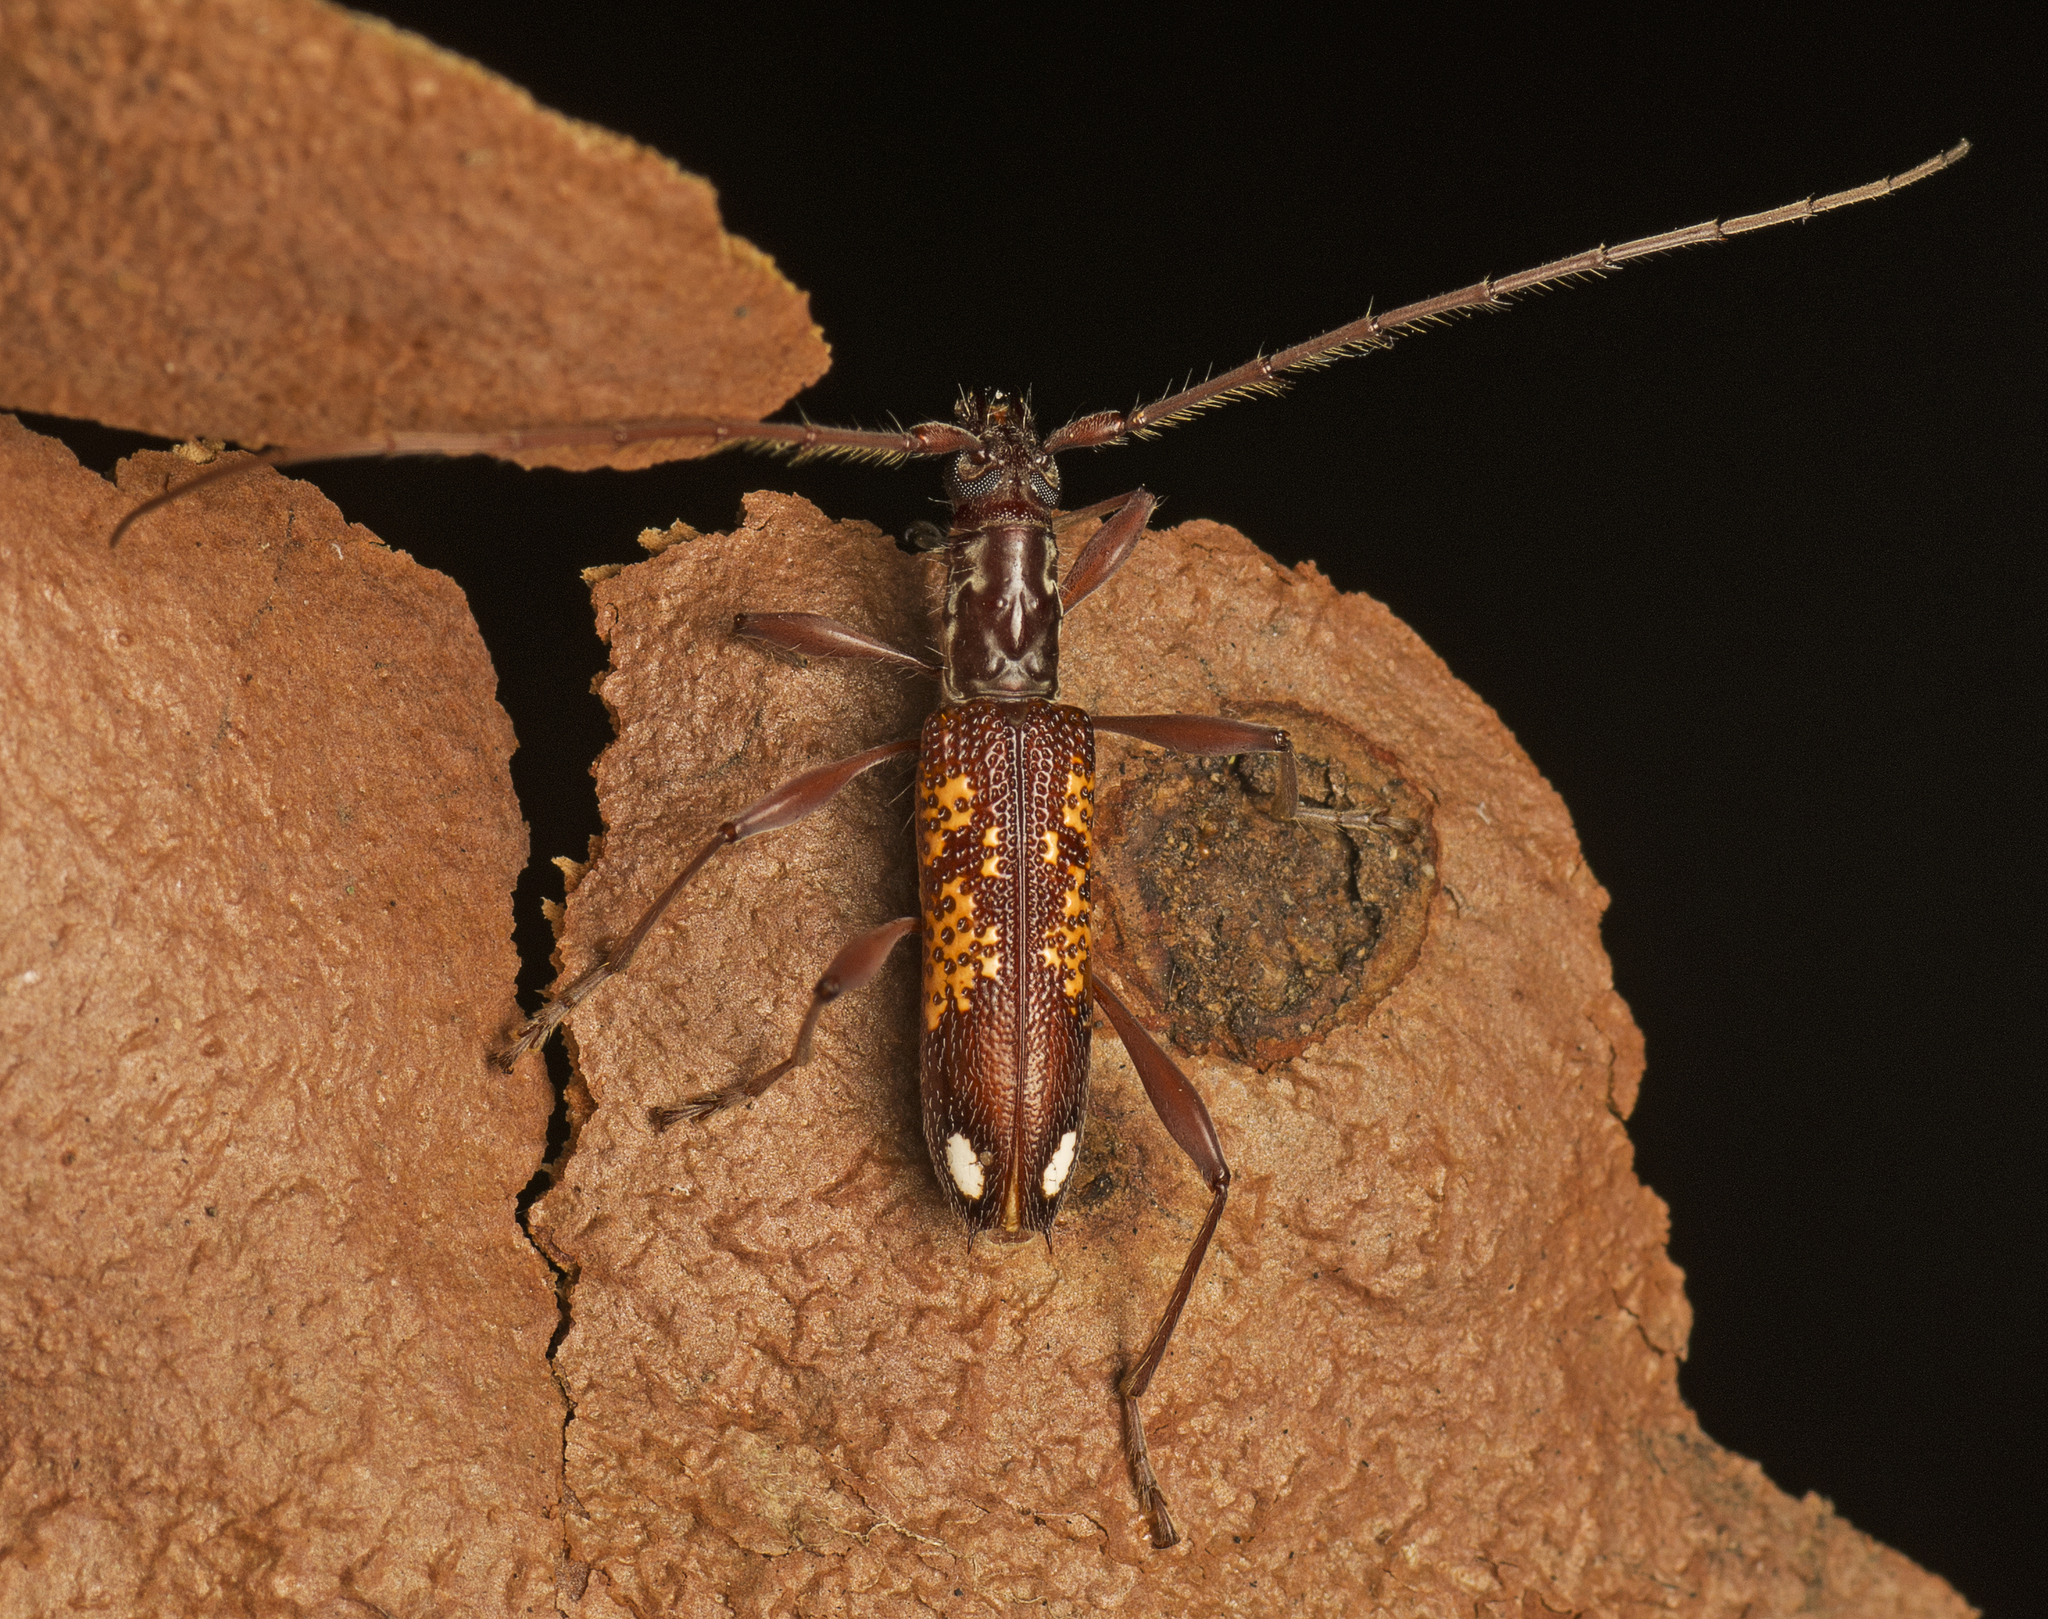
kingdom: Animalia
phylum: Arthropoda
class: Insecta
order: Coleoptera
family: Cerambycidae
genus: Coptocercus
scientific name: Coptocercus multitrichus
